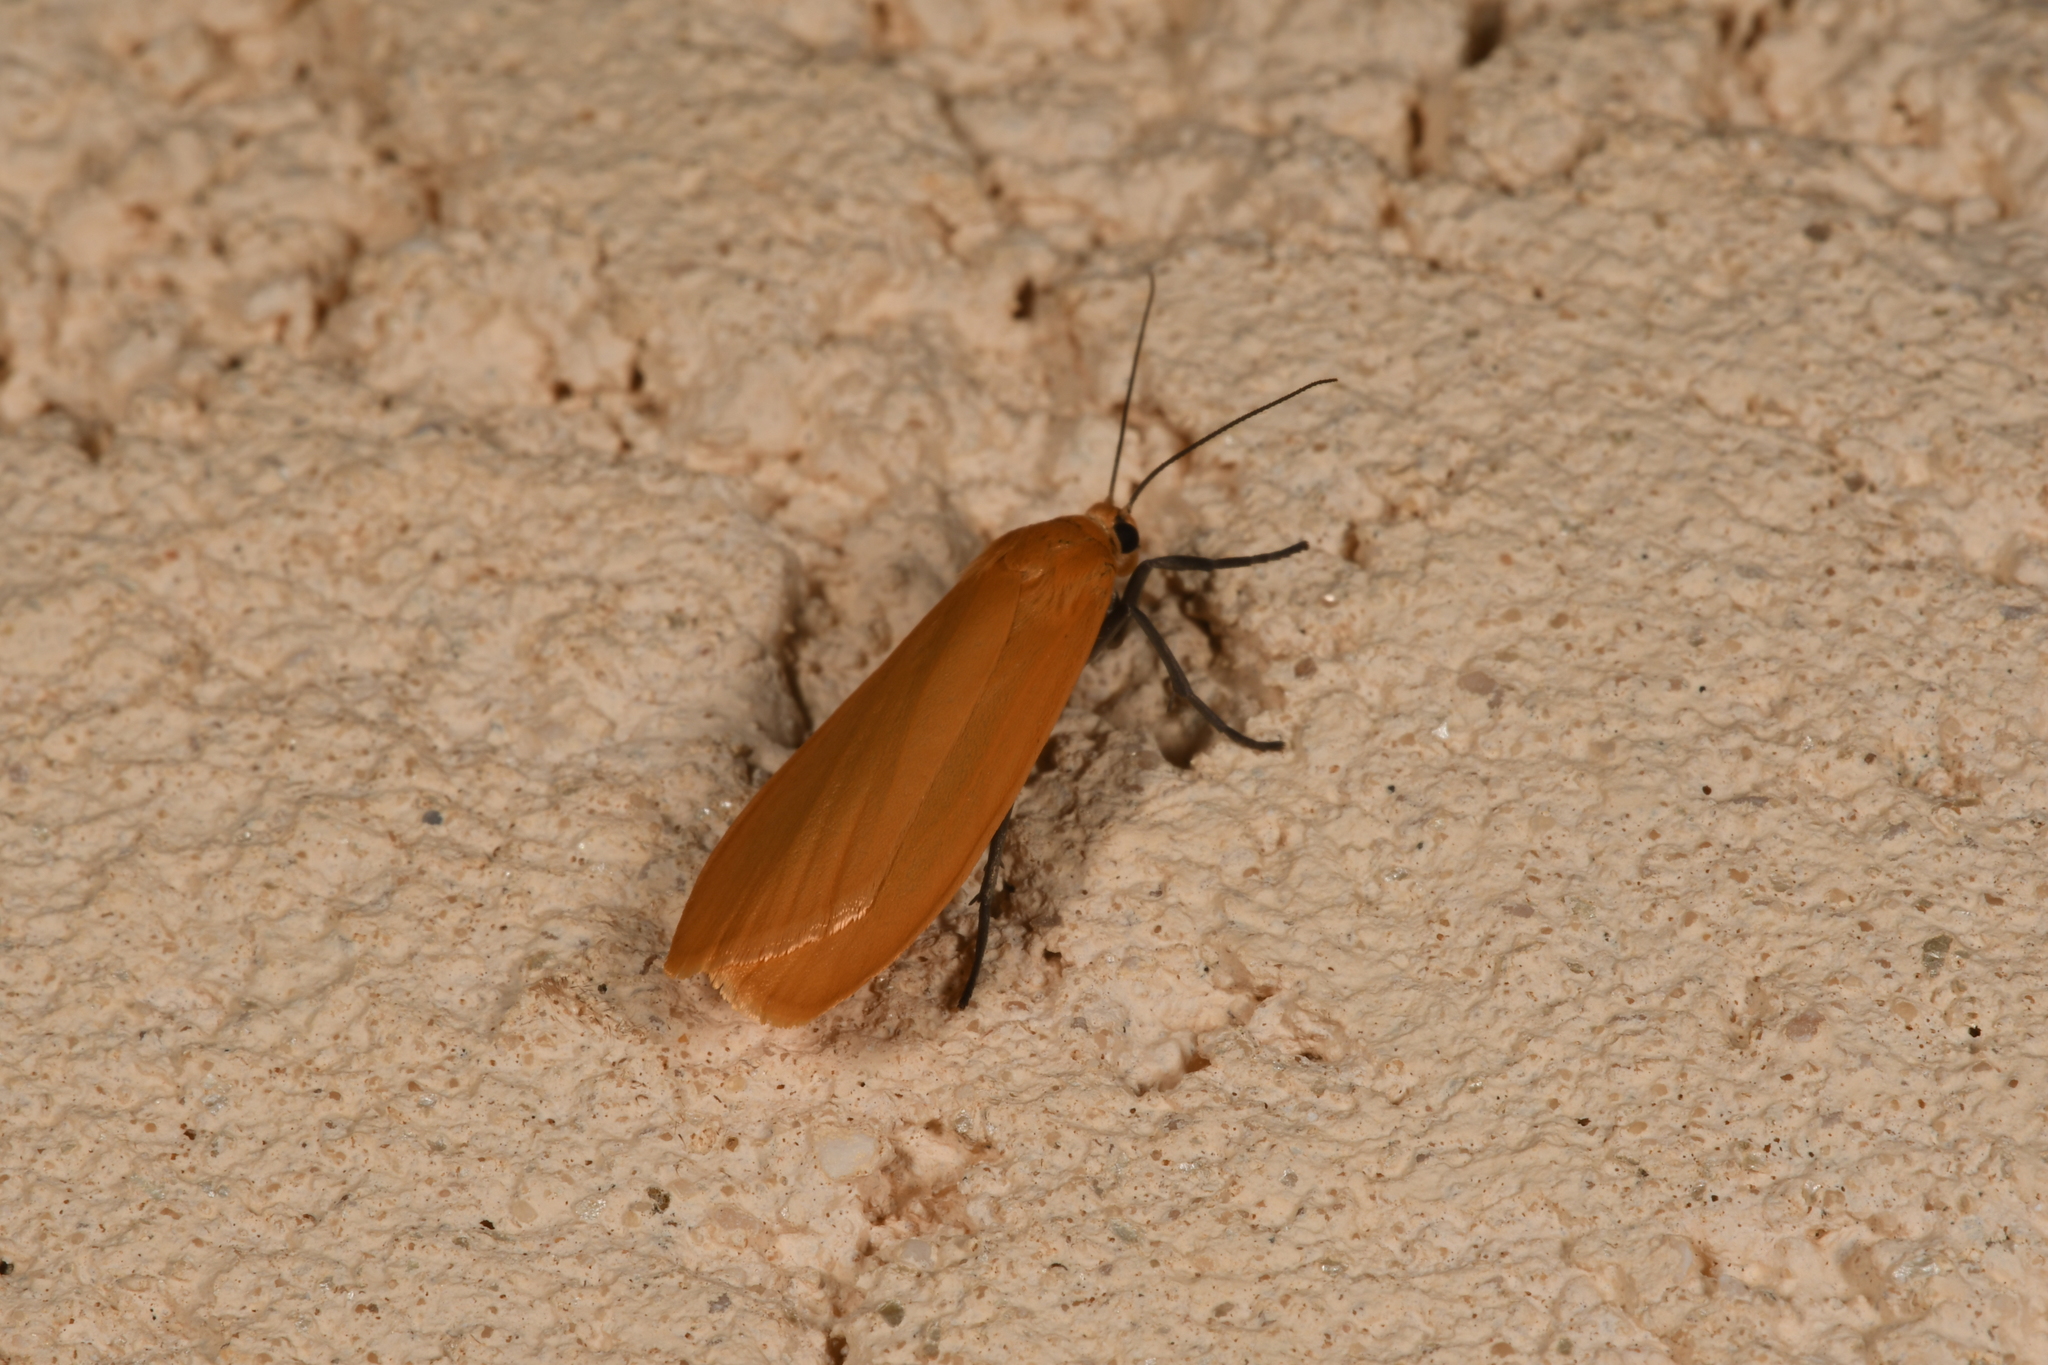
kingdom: Animalia
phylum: Arthropoda
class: Insecta
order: Lepidoptera
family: Erebidae
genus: Wittia
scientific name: Wittia sororcula
